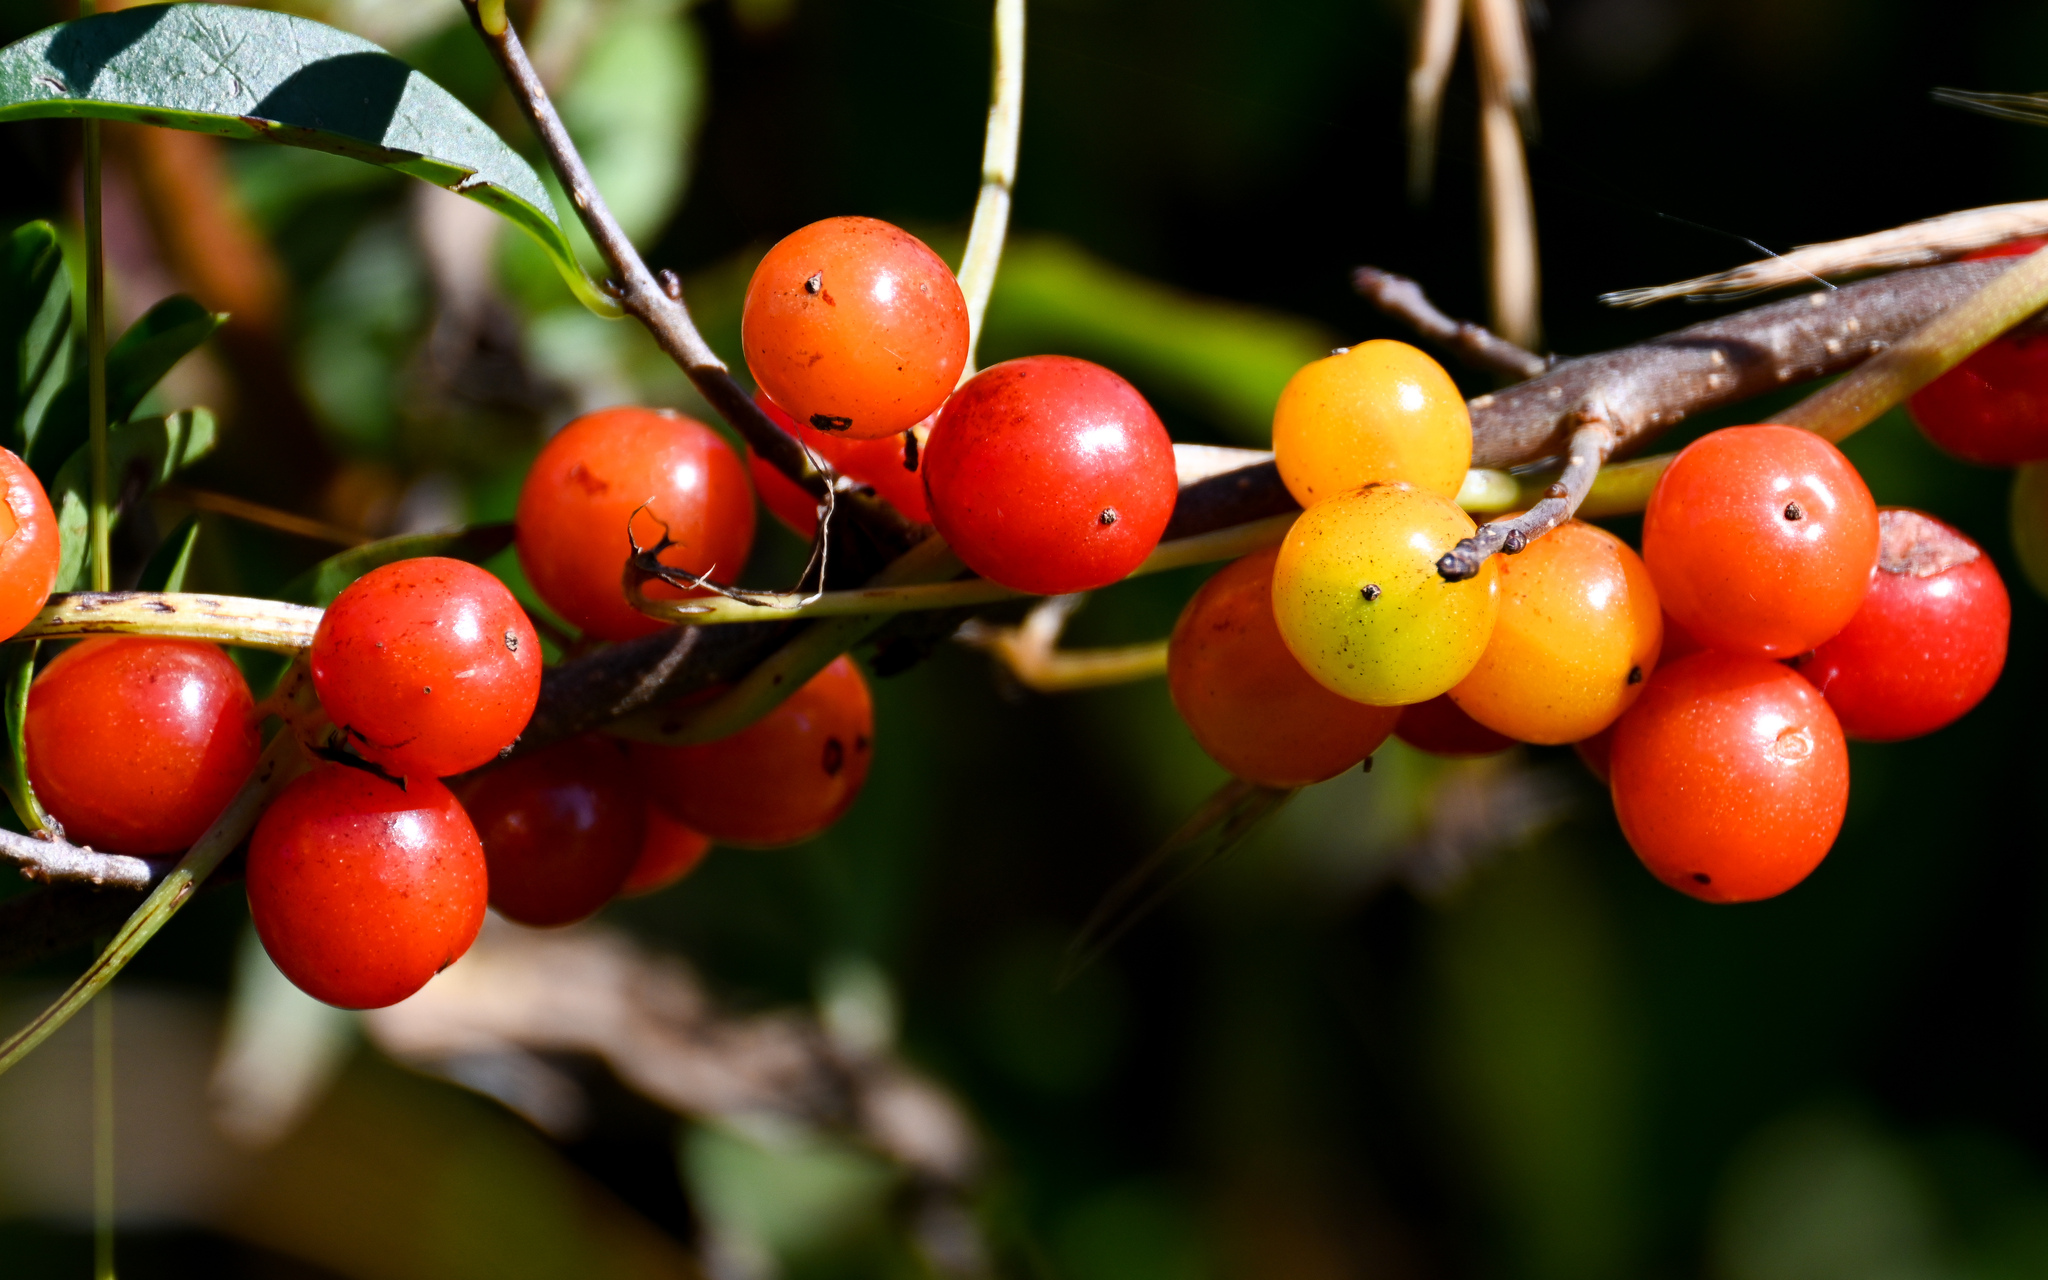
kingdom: Plantae
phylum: Tracheophyta
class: Liliopsida
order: Dioscoreales
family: Dioscoreaceae
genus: Dioscorea
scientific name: Dioscorea communis
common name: Black-bindweed
